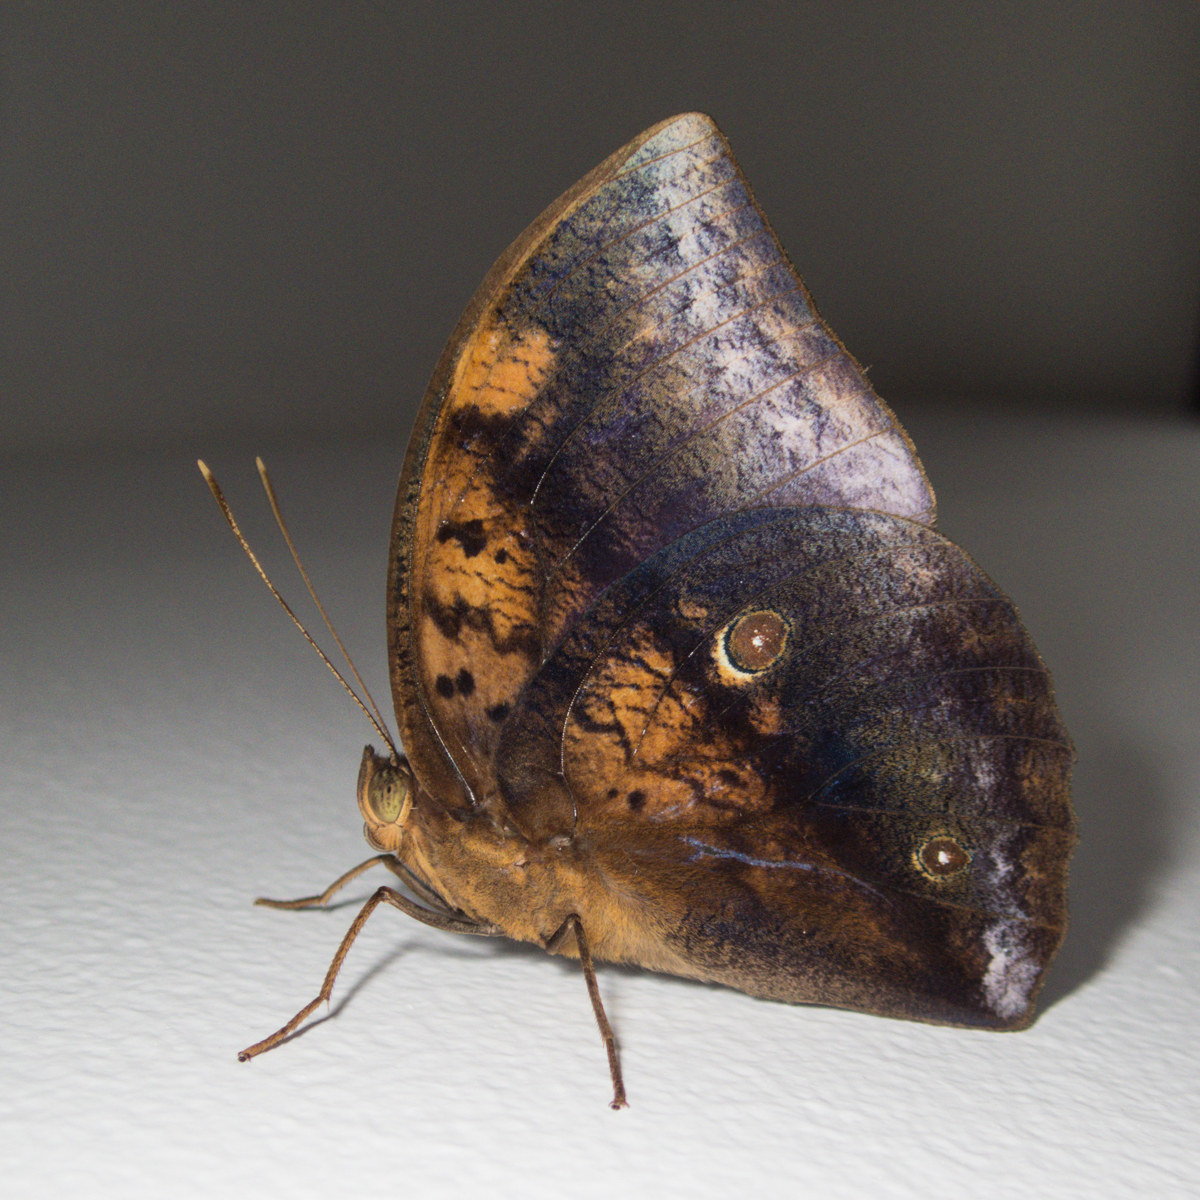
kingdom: Animalia
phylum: Arthropoda
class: Insecta
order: Lepidoptera
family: Nymphalidae
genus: Discophora
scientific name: Discophora timora
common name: Great duffer
